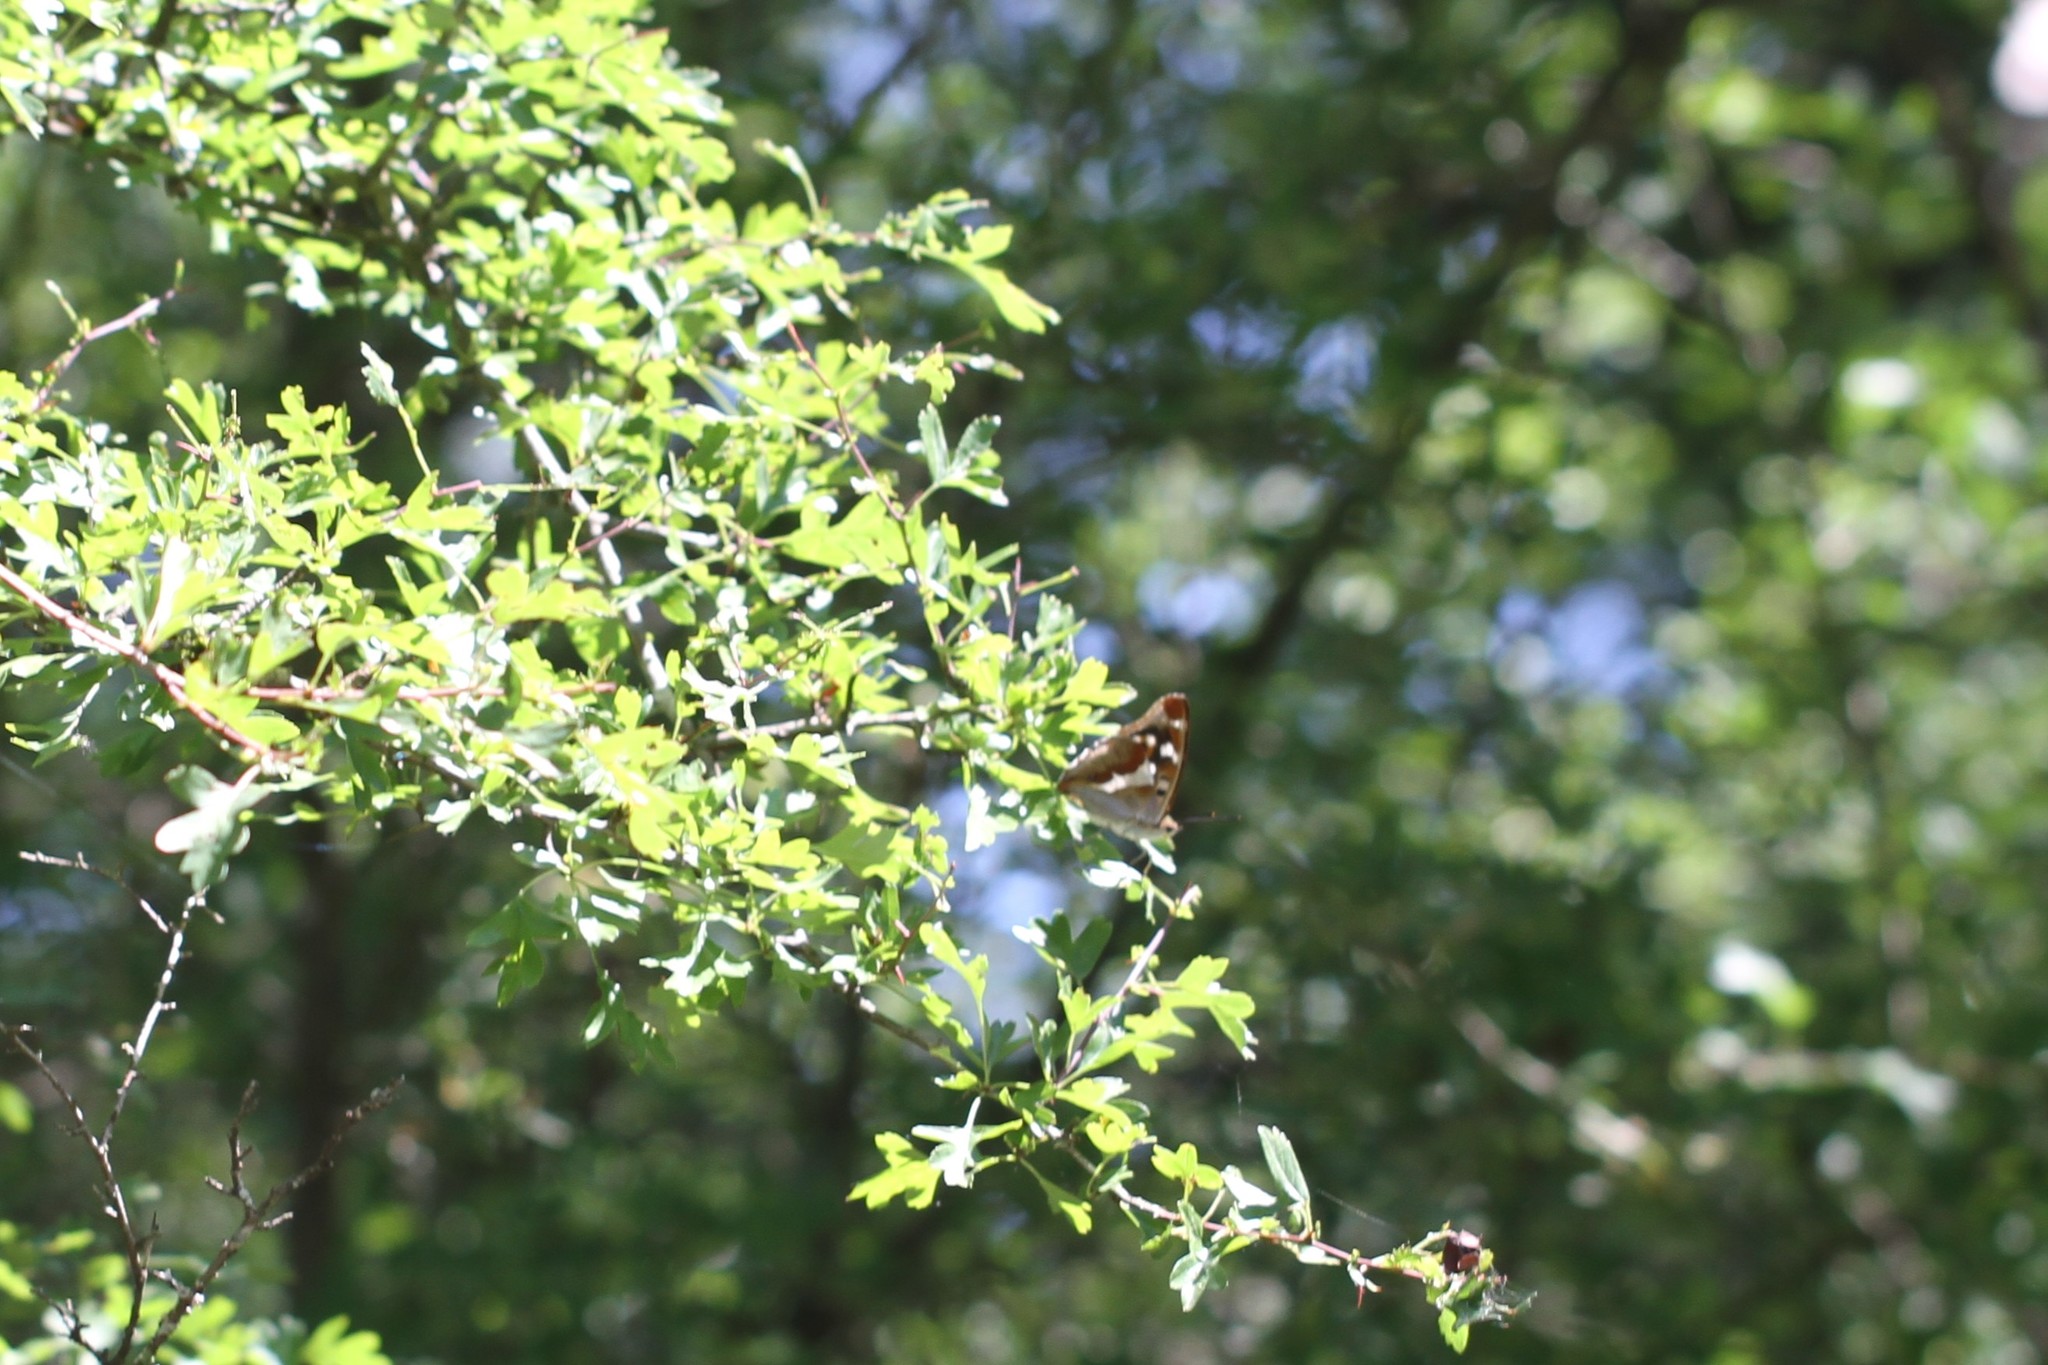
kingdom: Animalia
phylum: Arthropoda
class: Insecta
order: Lepidoptera
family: Nymphalidae
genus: Apatura
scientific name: Apatura iris
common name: Purple emperor
